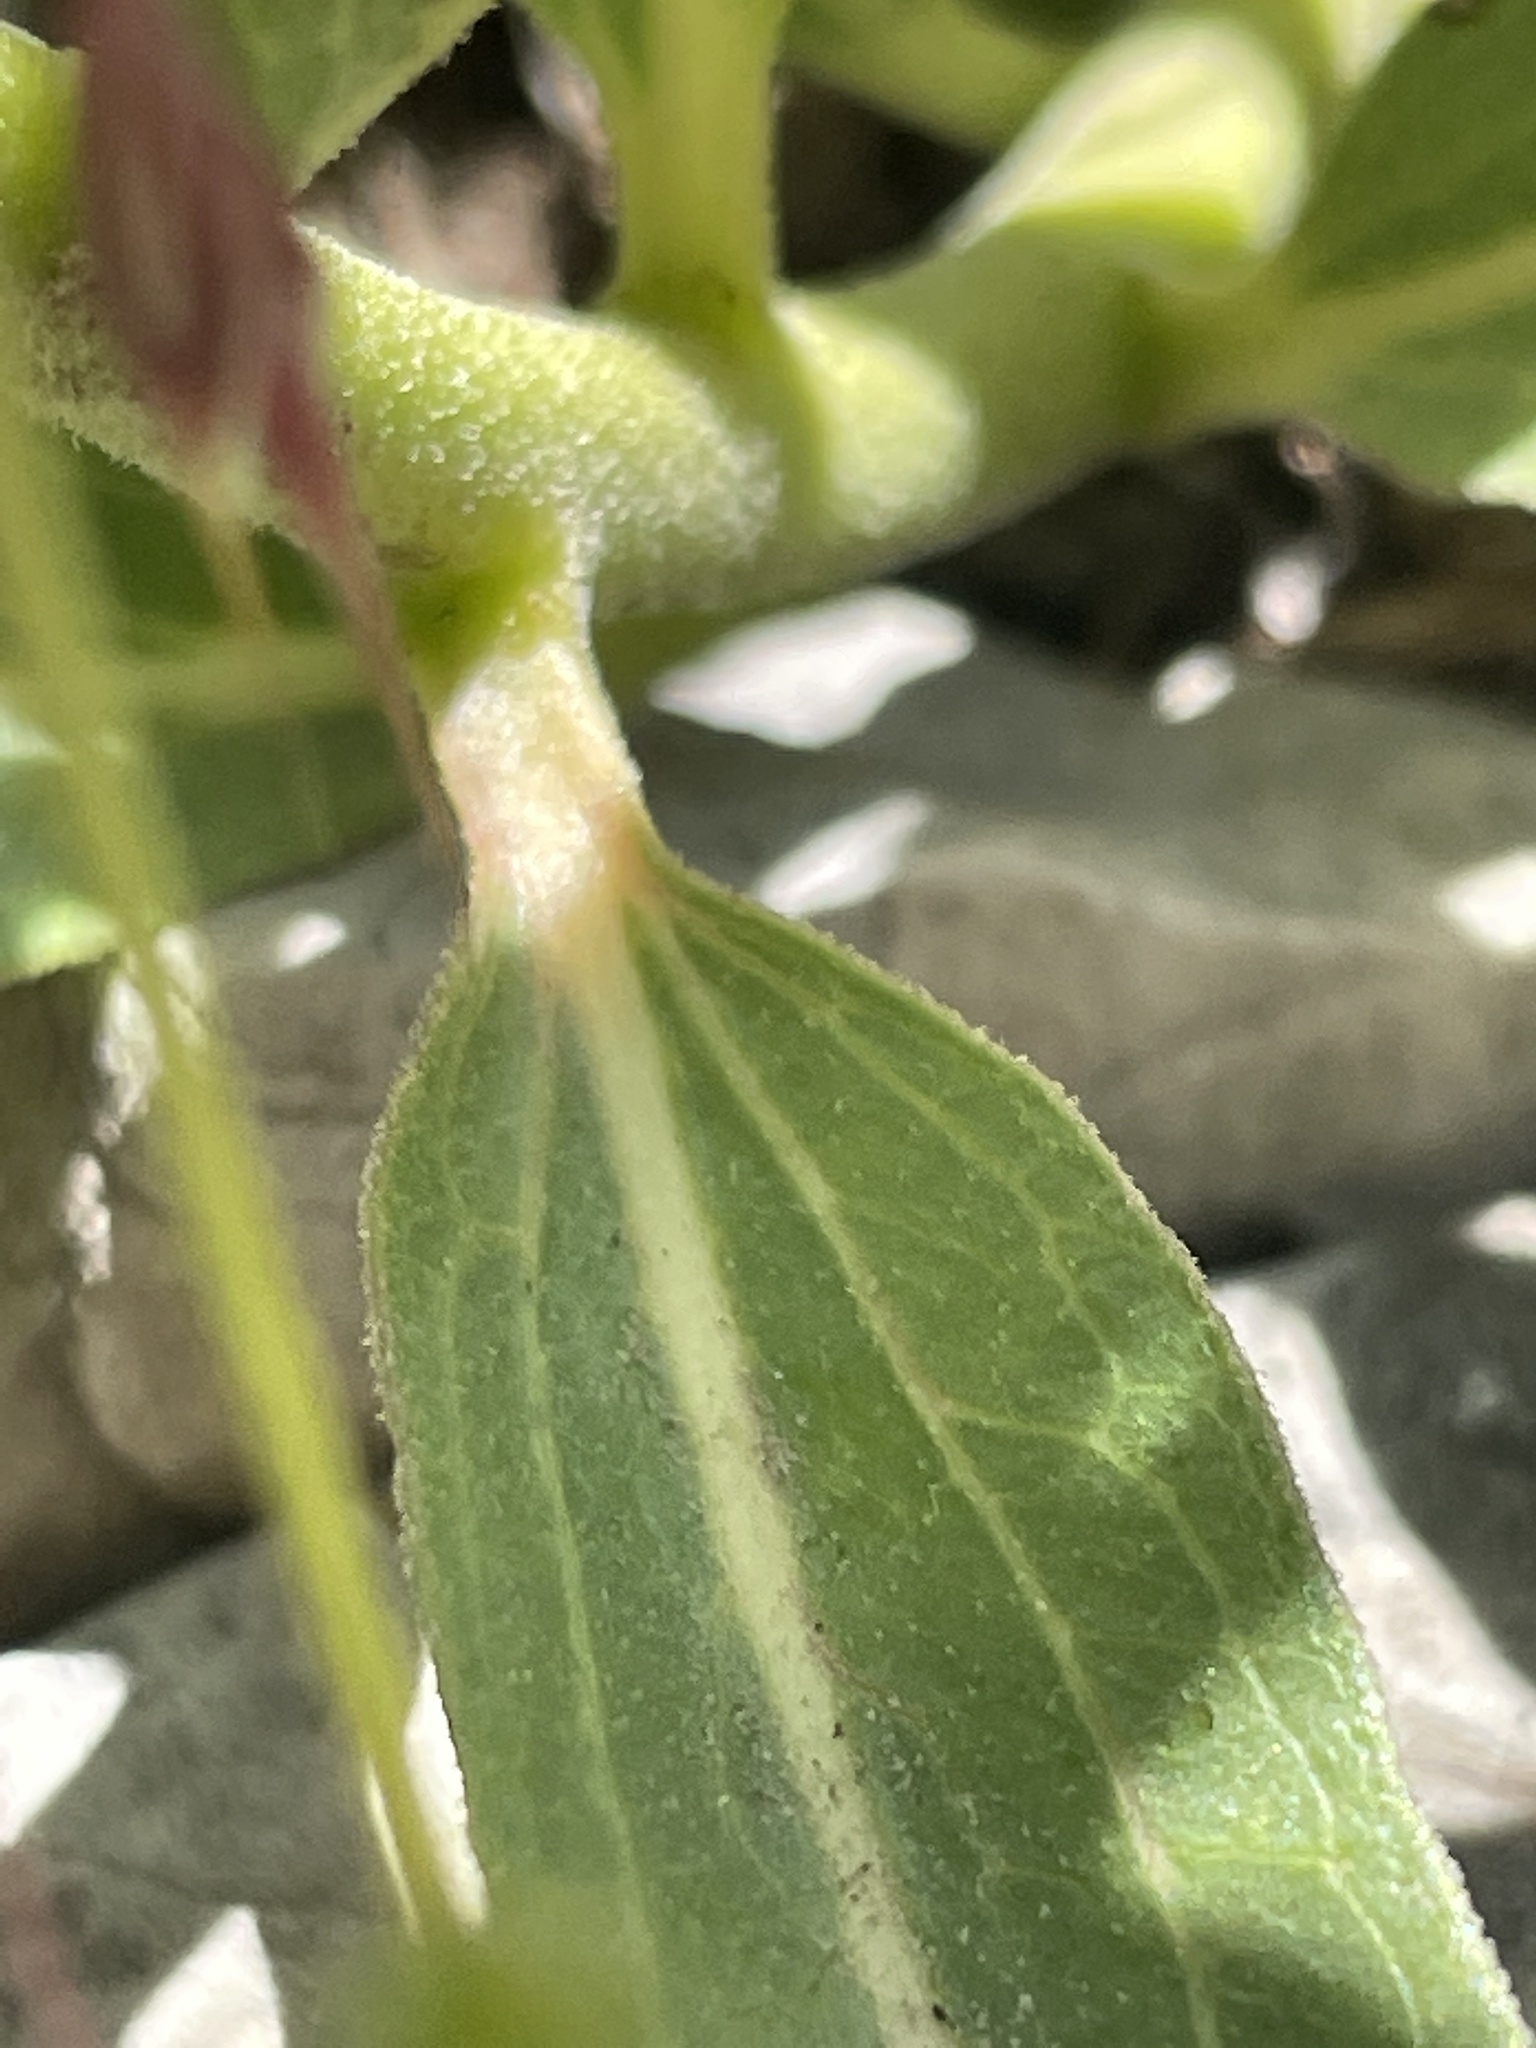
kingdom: Plantae
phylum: Tracheophyta
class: Magnoliopsida
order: Gentianales
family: Apocynaceae
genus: Asclepias
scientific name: Asclepias asperula
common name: Antelope horns
